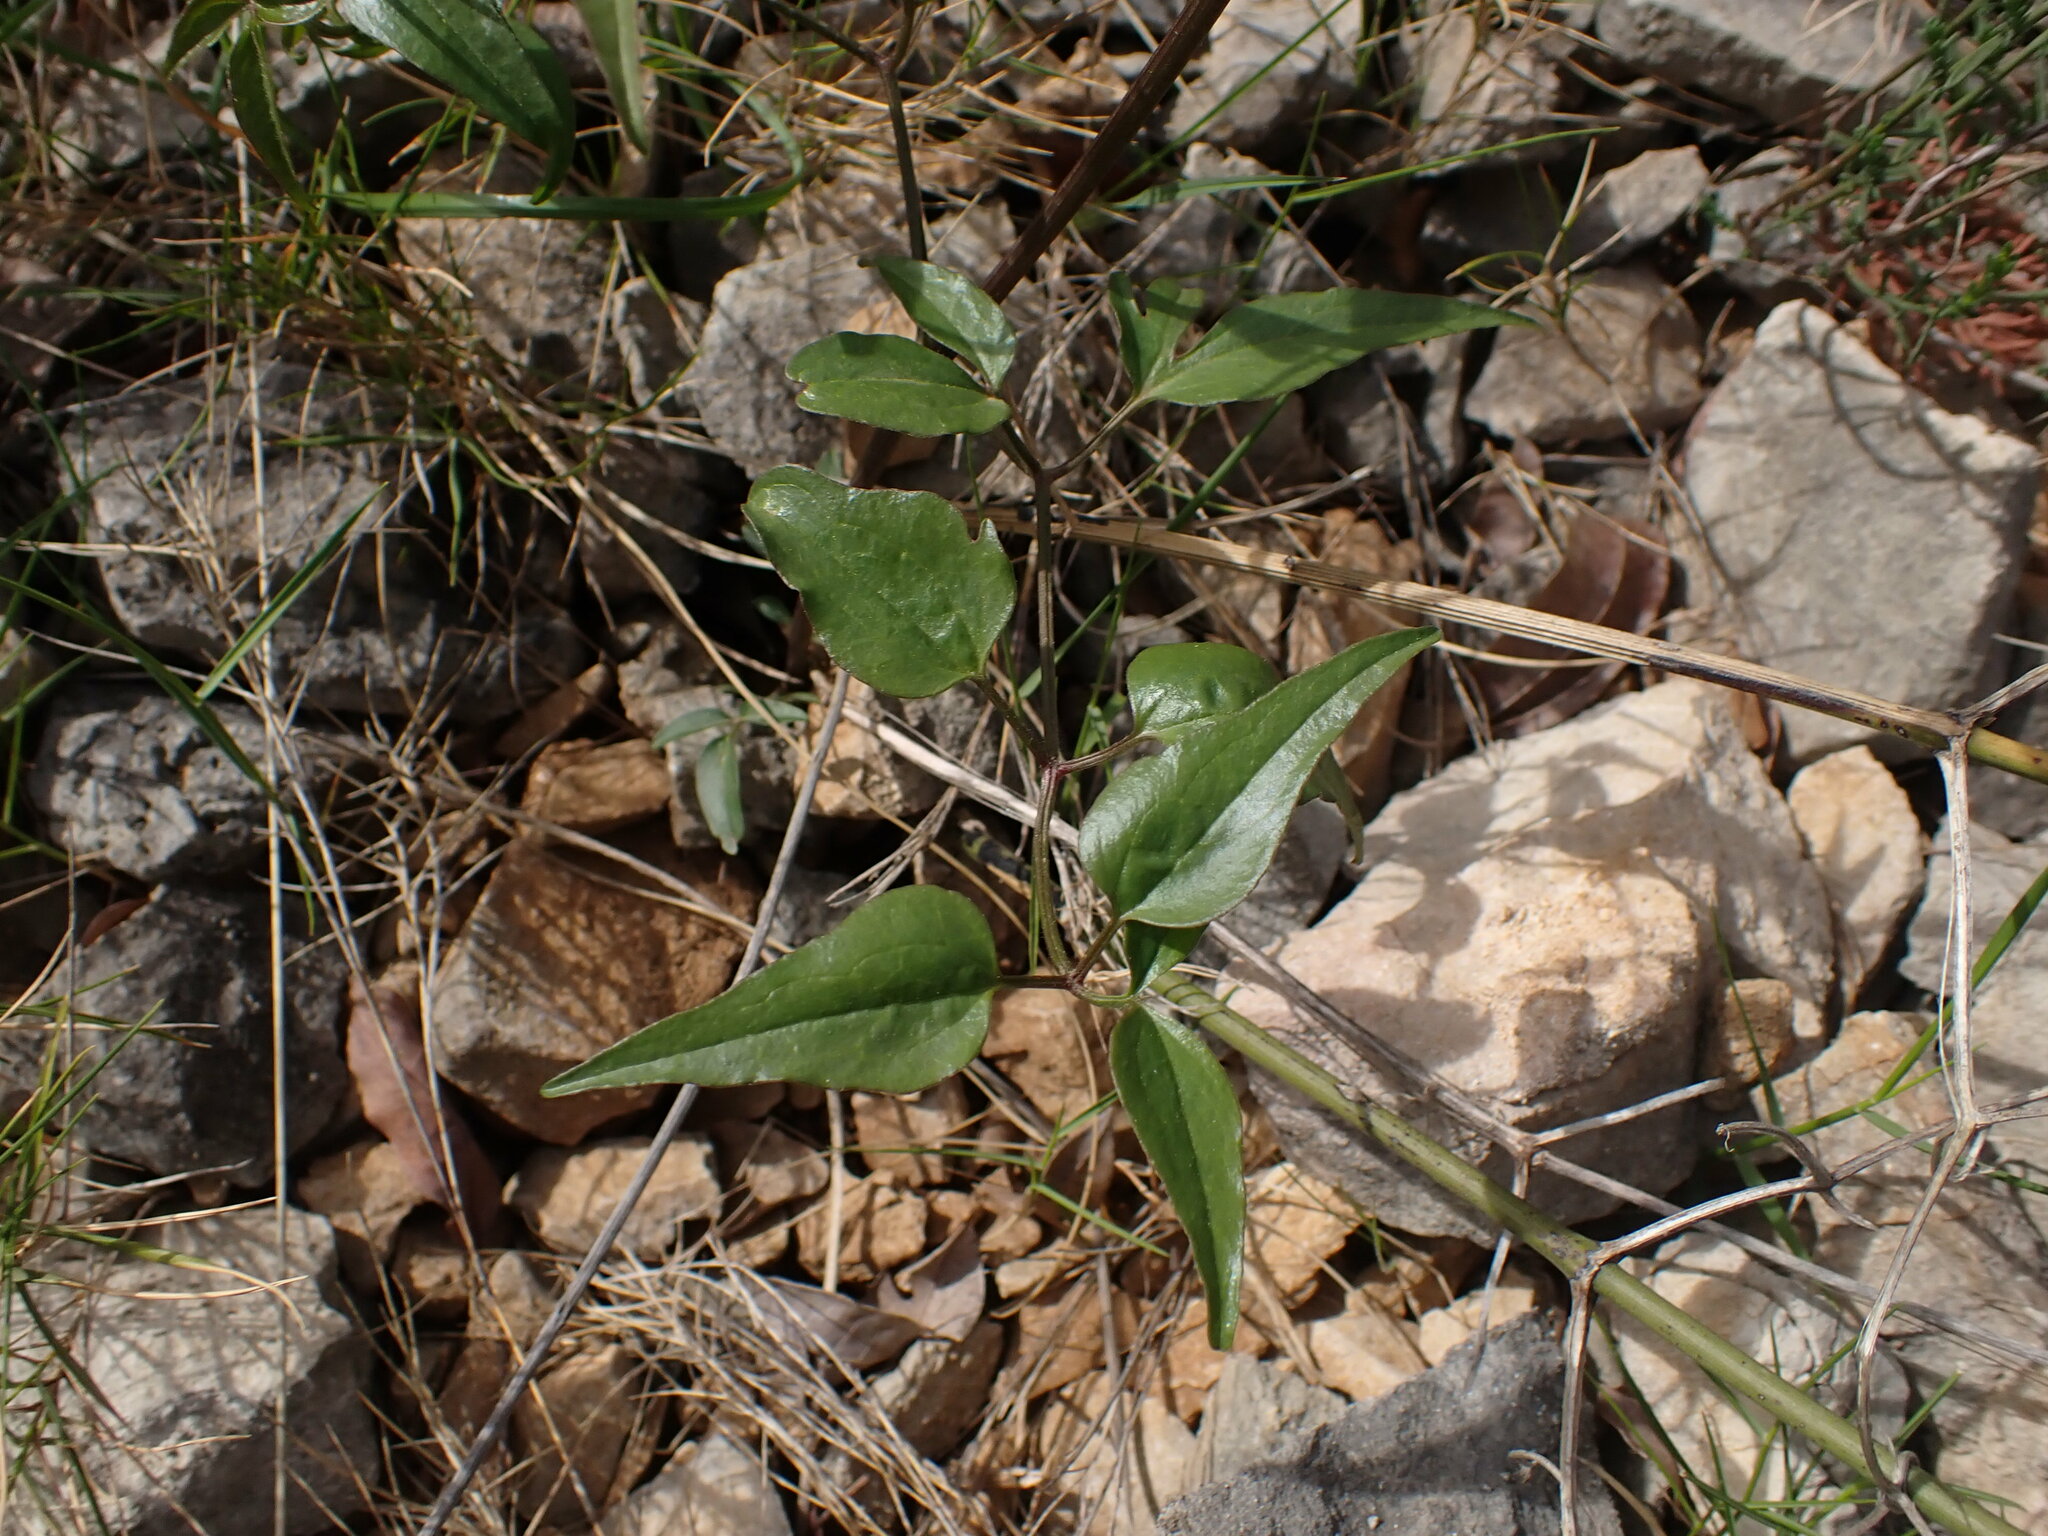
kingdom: Plantae
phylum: Tracheophyta
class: Magnoliopsida
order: Ranunculales
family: Ranunculaceae
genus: Clematis
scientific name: Clematis flammula
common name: Virgin's-bower
